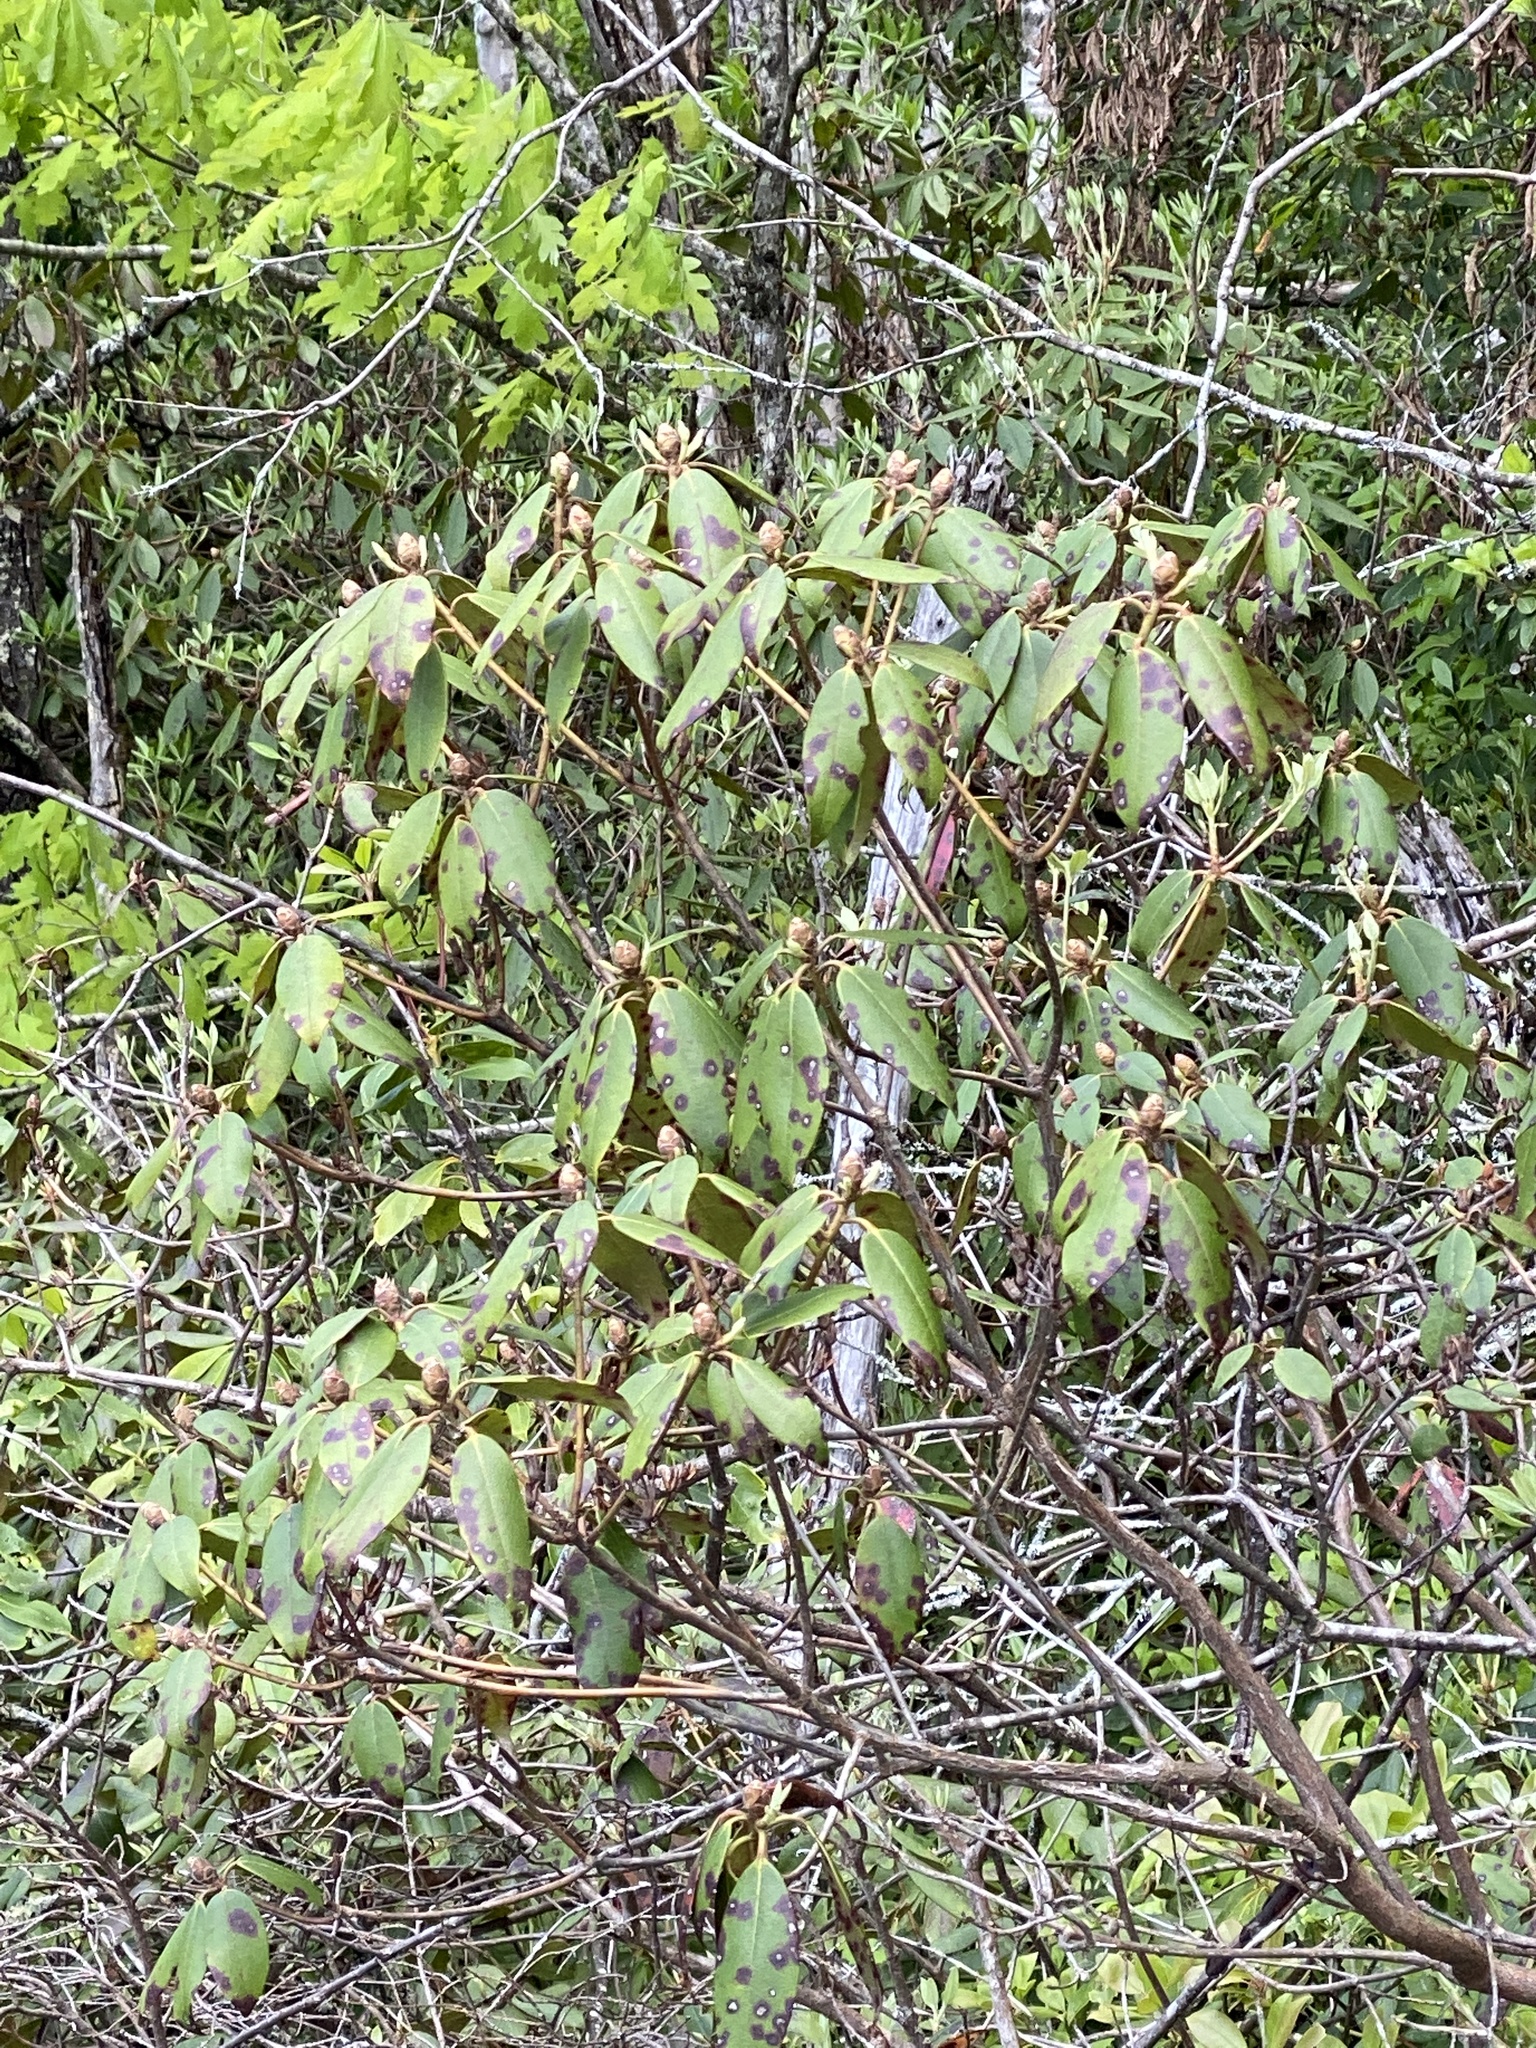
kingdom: Plantae
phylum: Tracheophyta
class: Magnoliopsida
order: Ericales
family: Ericaceae
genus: Rhododendron
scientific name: Rhododendron minus
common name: Piedmont rhododendron
